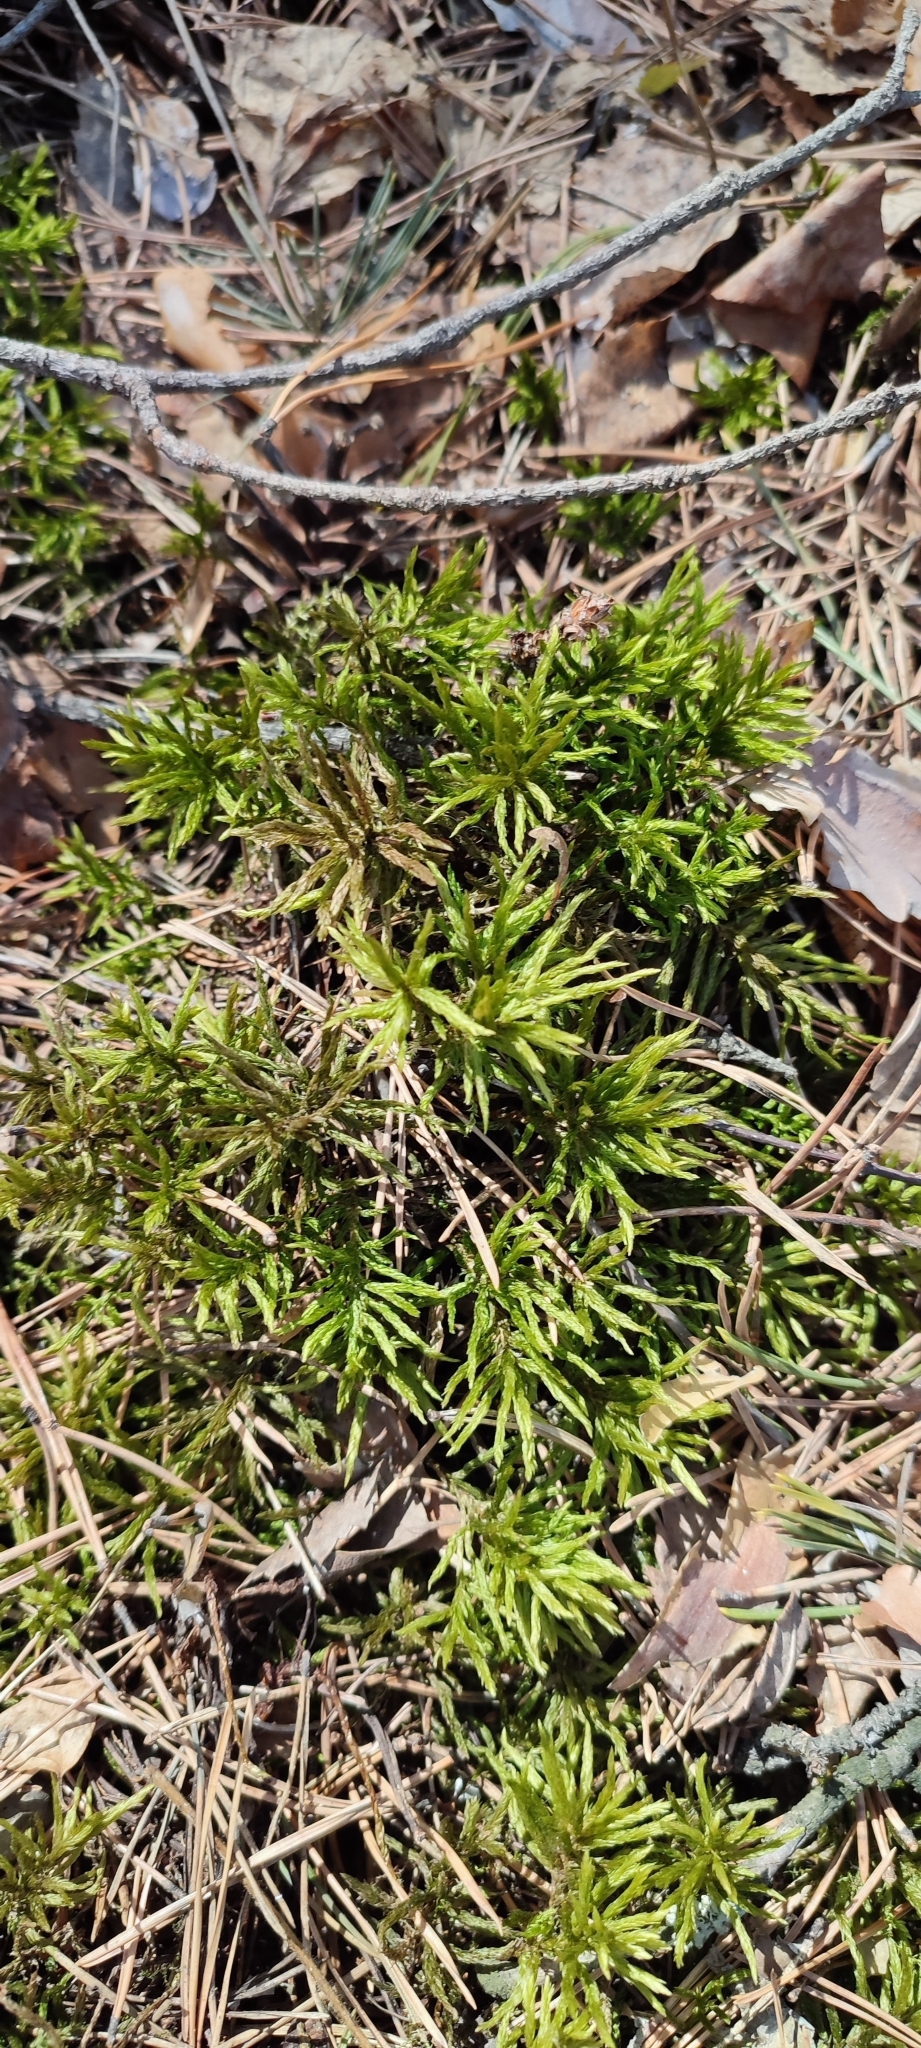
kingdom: Plantae
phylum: Bryophyta
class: Bryopsida
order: Hypnales
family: Climaciaceae
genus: Climacium
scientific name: Climacium dendroides
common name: Northern tree moss
